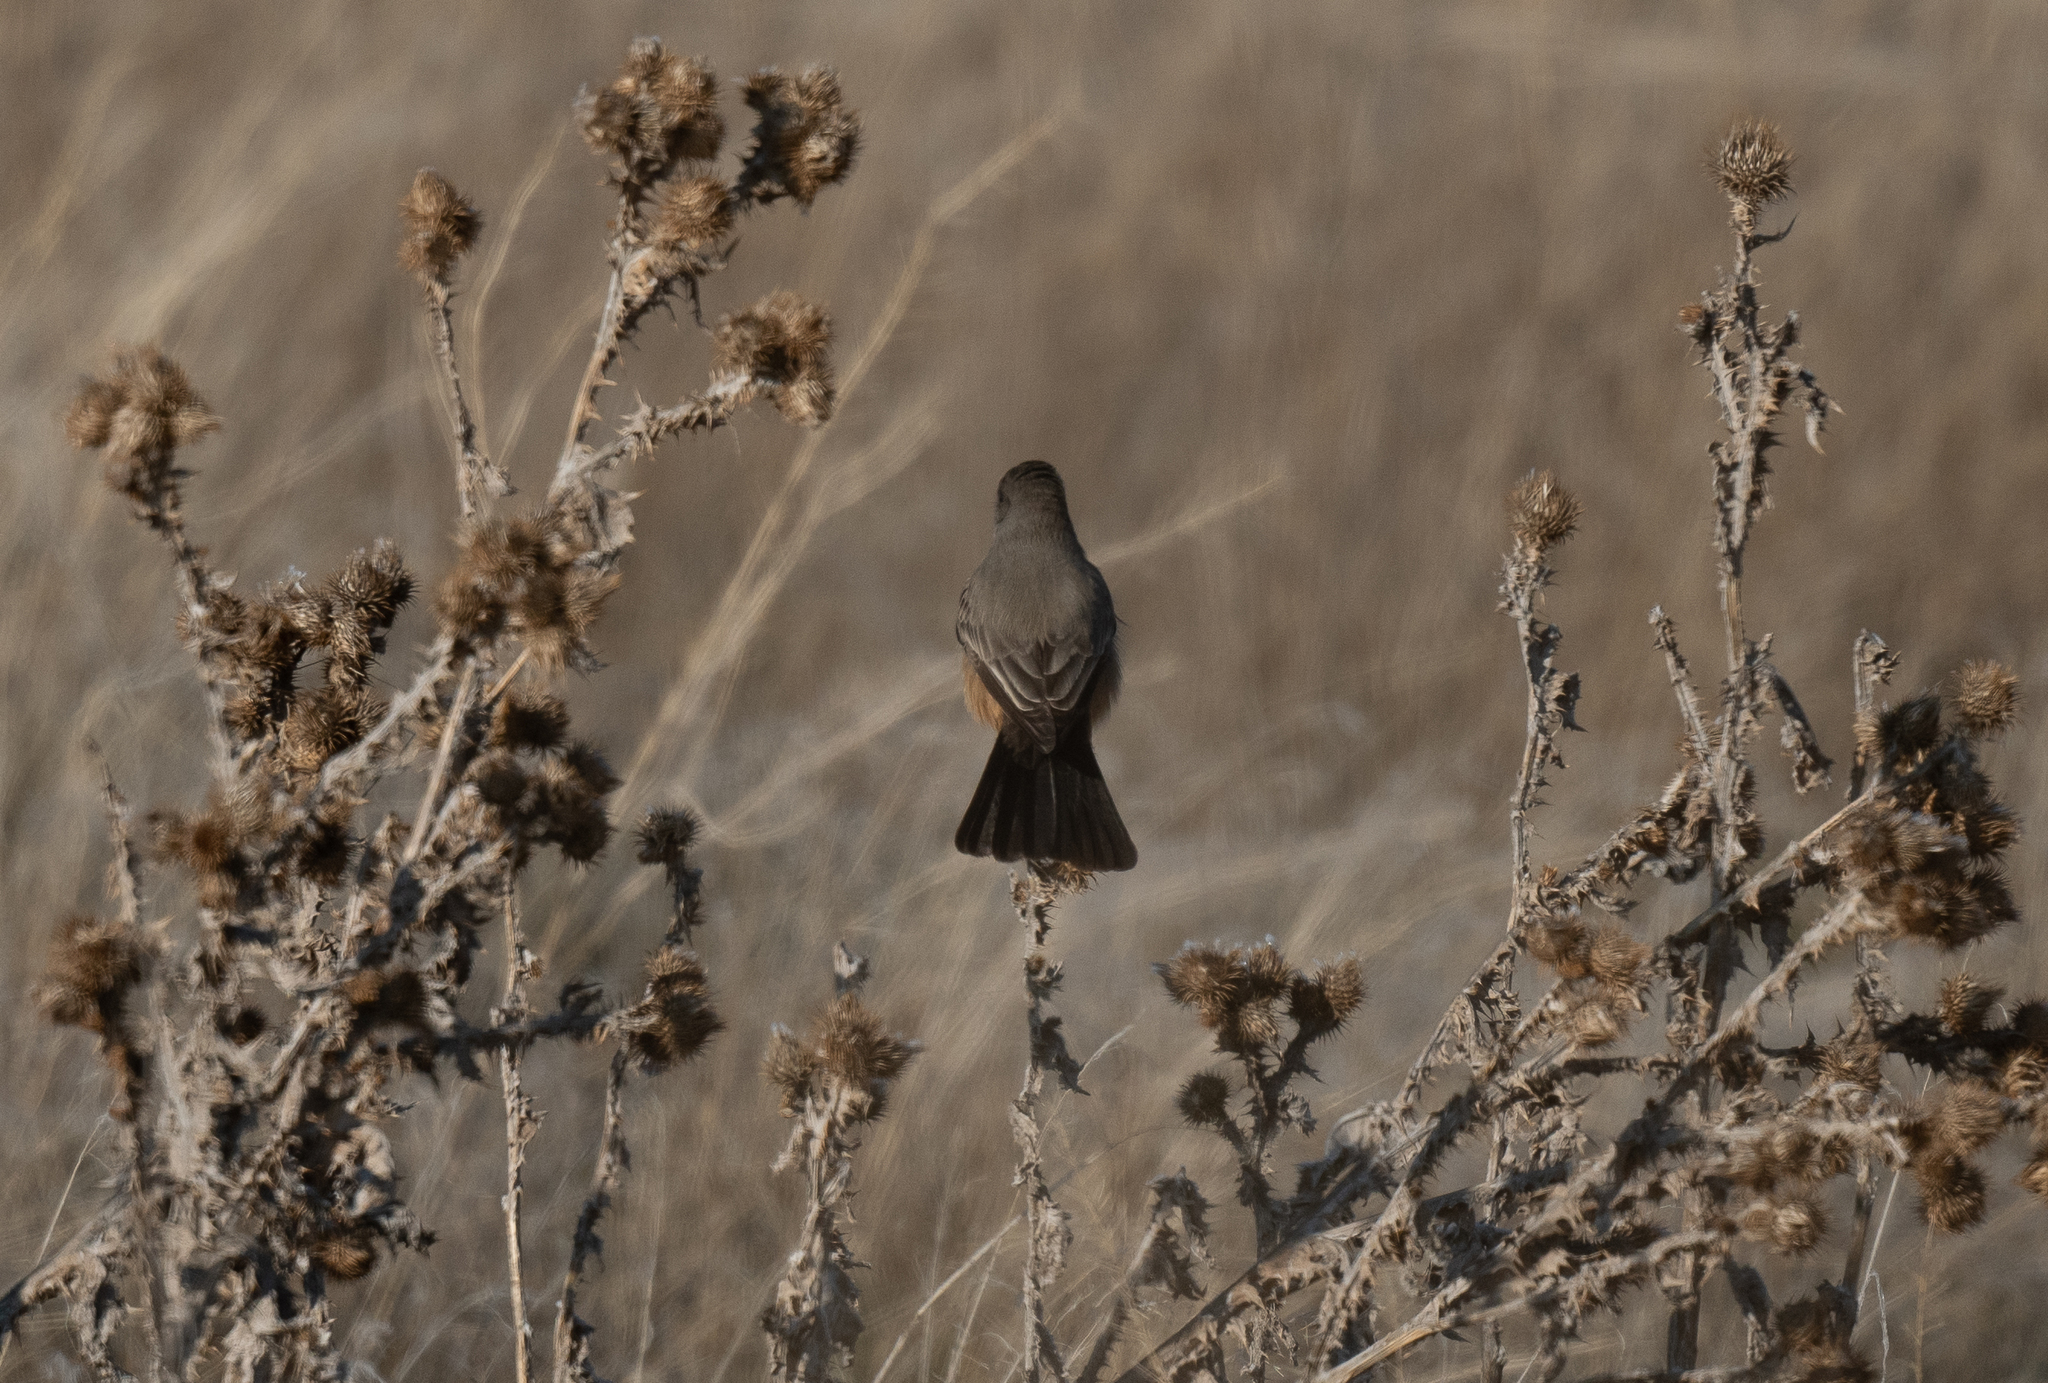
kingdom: Animalia
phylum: Chordata
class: Aves
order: Passeriformes
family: Tyrannidae
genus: Sayornis
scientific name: Sayornis saya
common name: Say's phoebe
